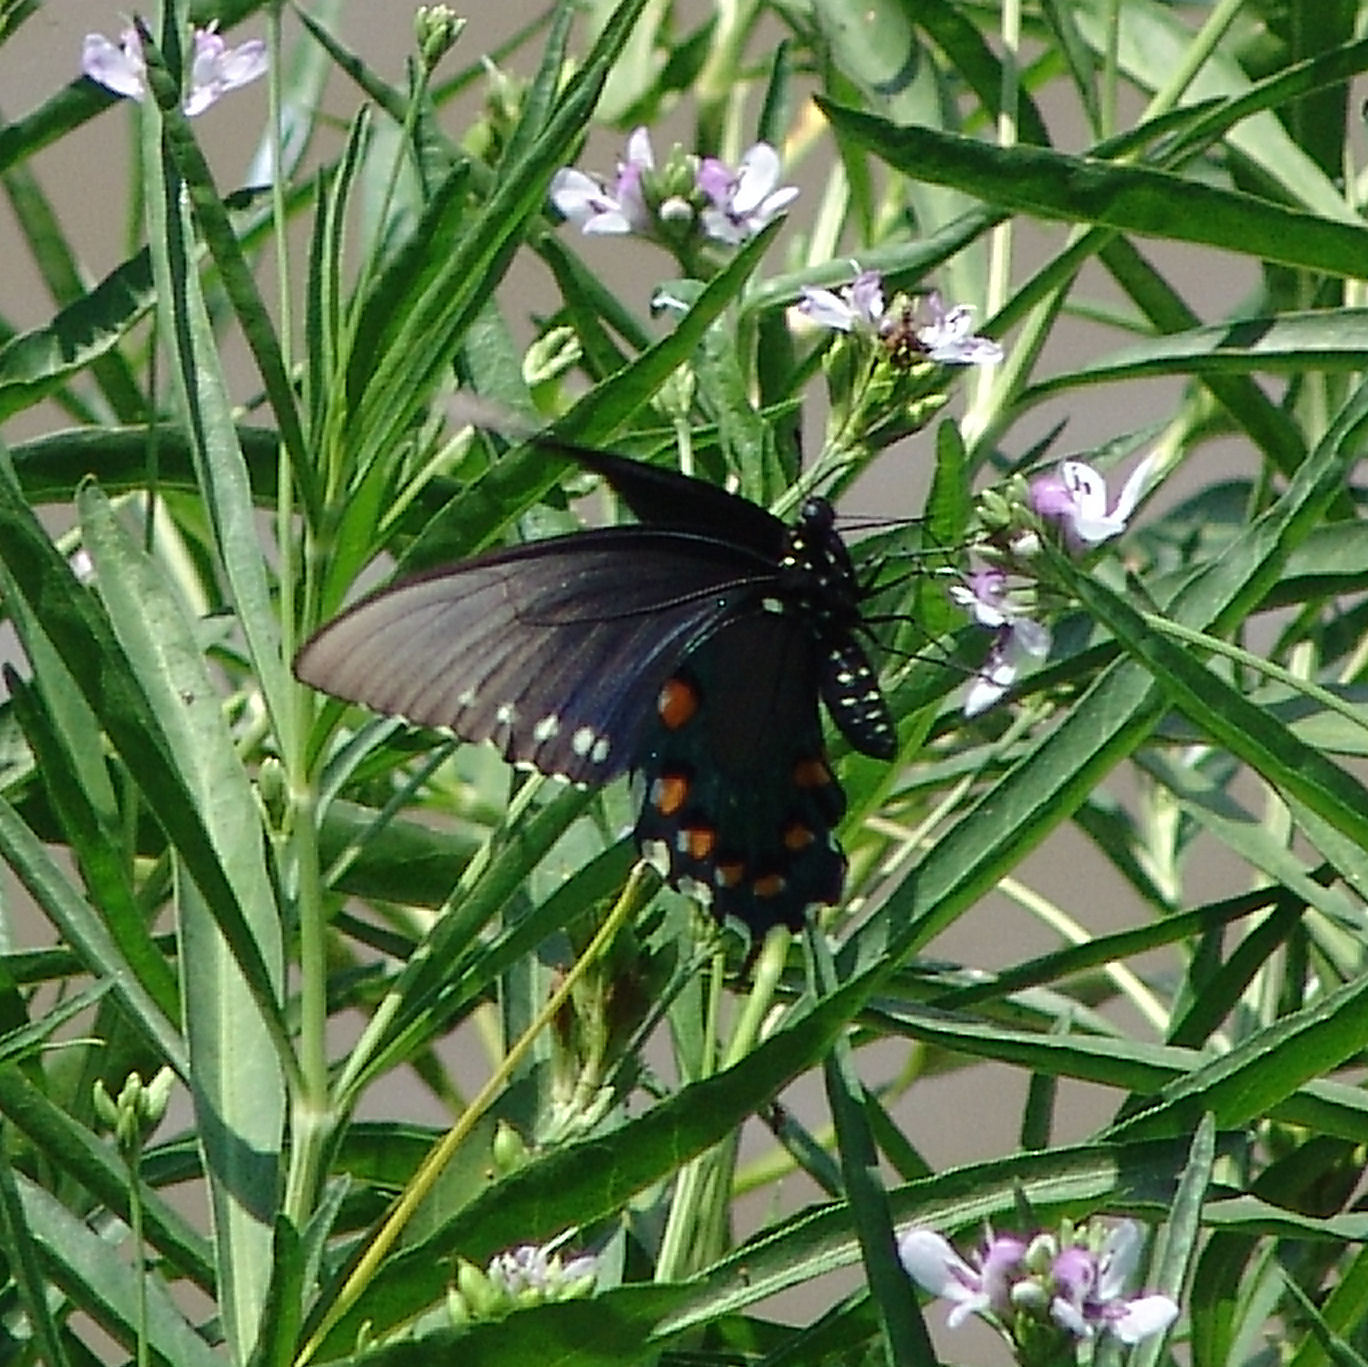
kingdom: Animalia
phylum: Arthropoda
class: Insecta
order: Lepidoptera
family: Papilionidae
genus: Battus
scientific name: Battus philenor
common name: Pipevine swallowtail
